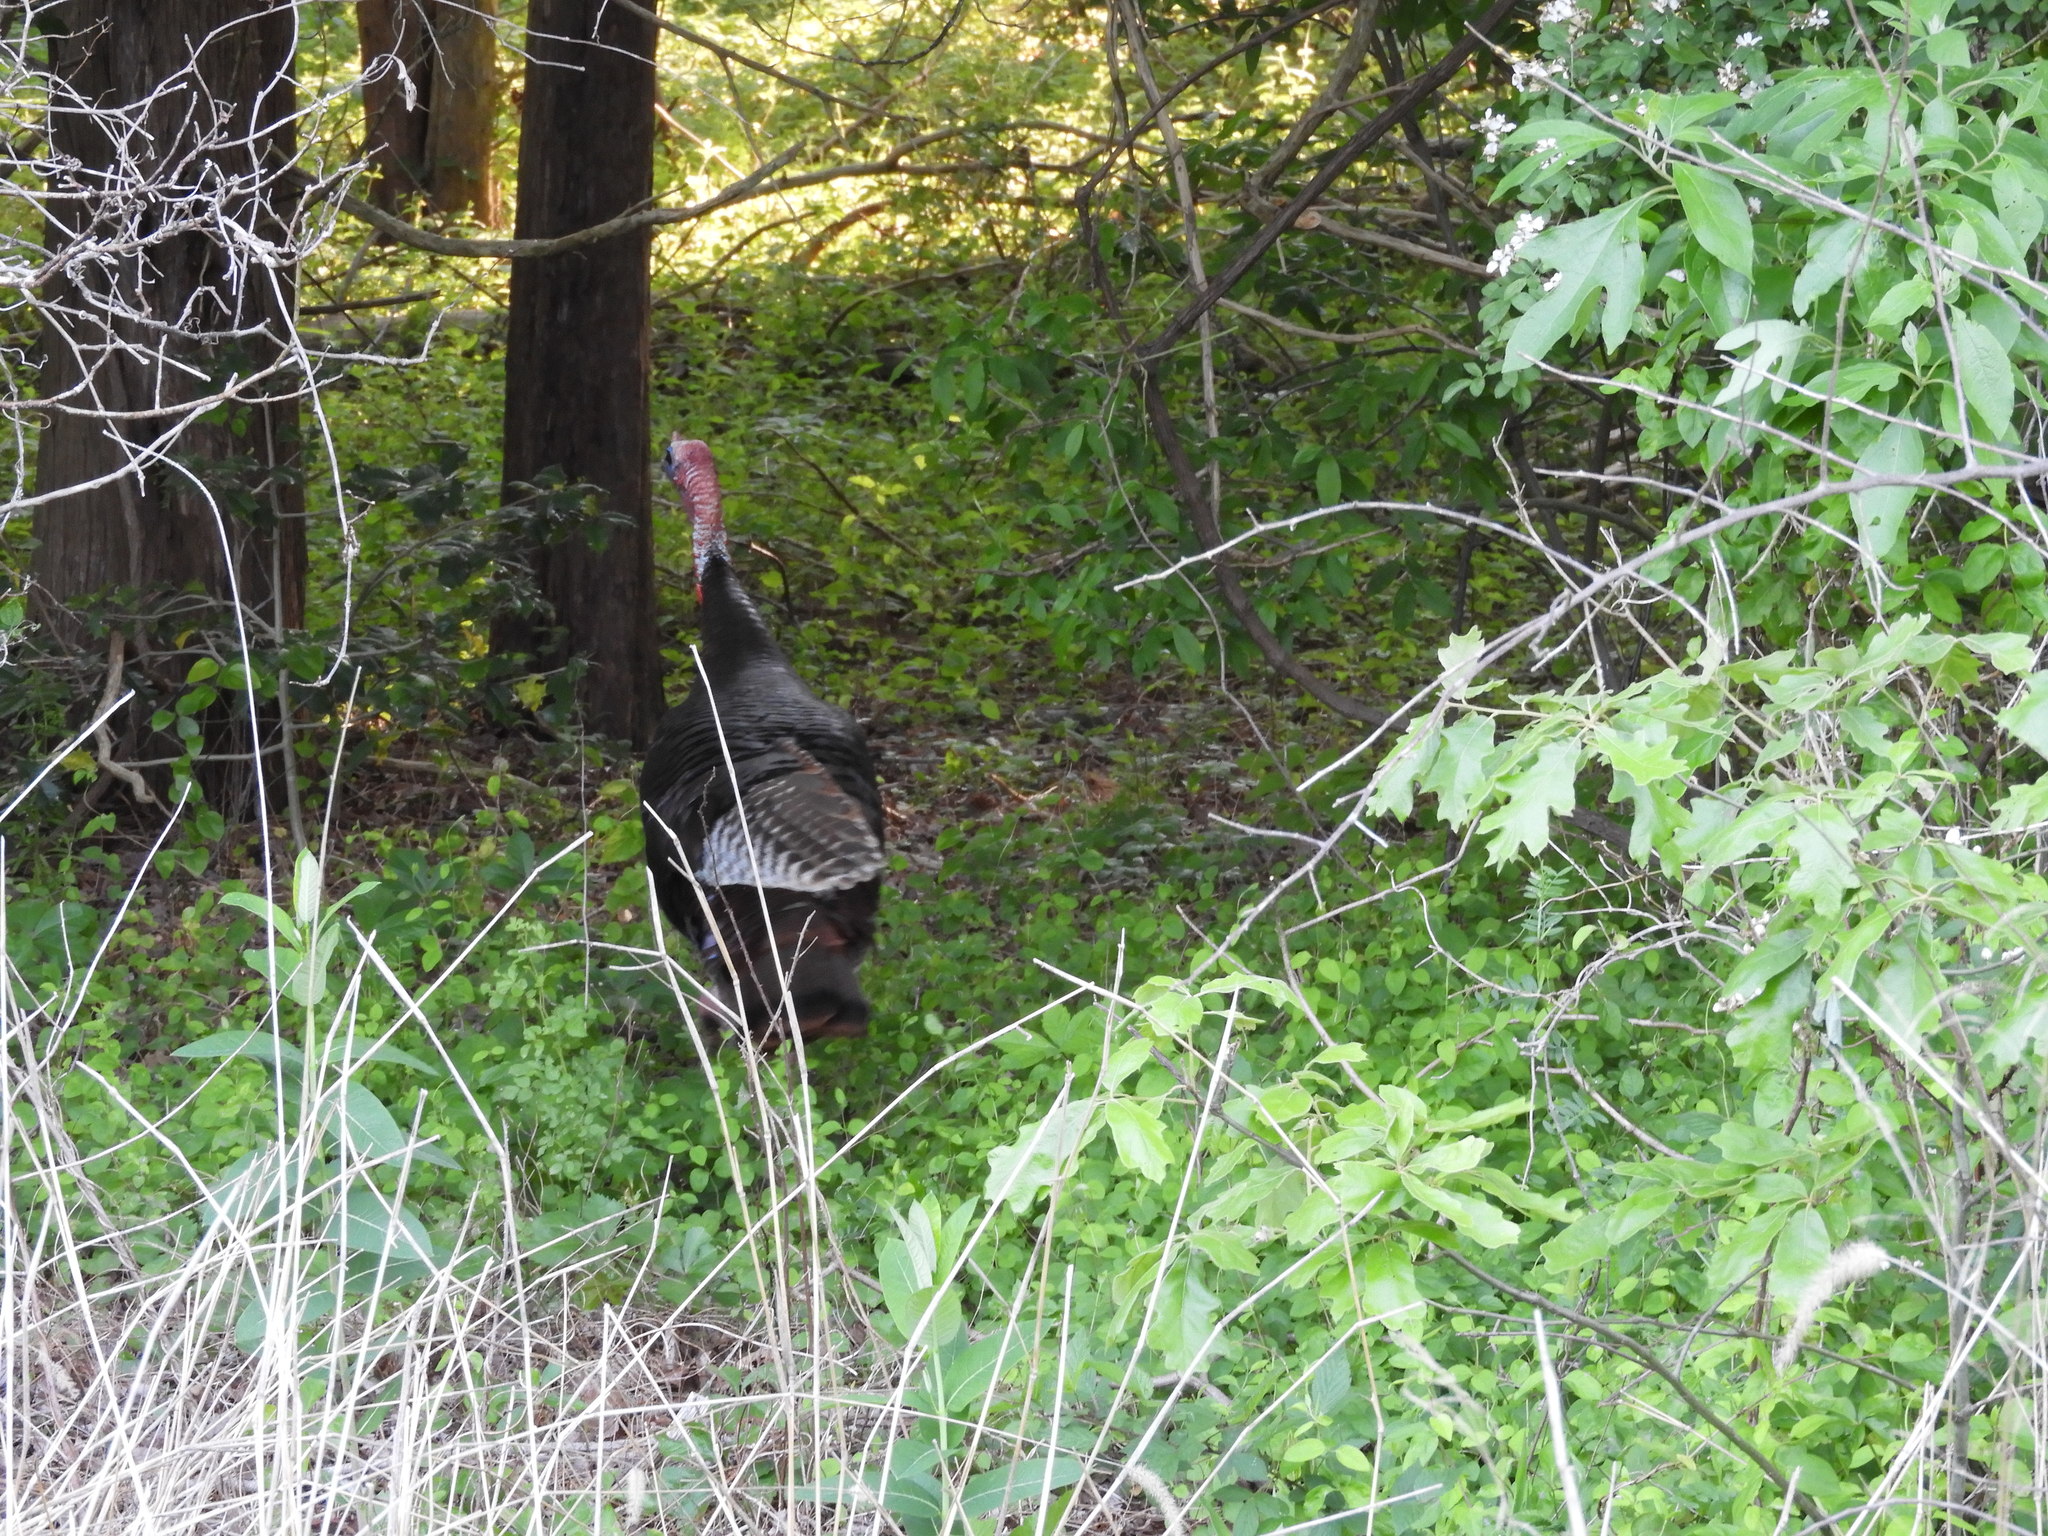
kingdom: Animalia
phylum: Chordata
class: Aves
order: Galliformes
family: Phasianidae
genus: Meleagris
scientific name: Meleagris gallopavo
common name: Wild turkey
